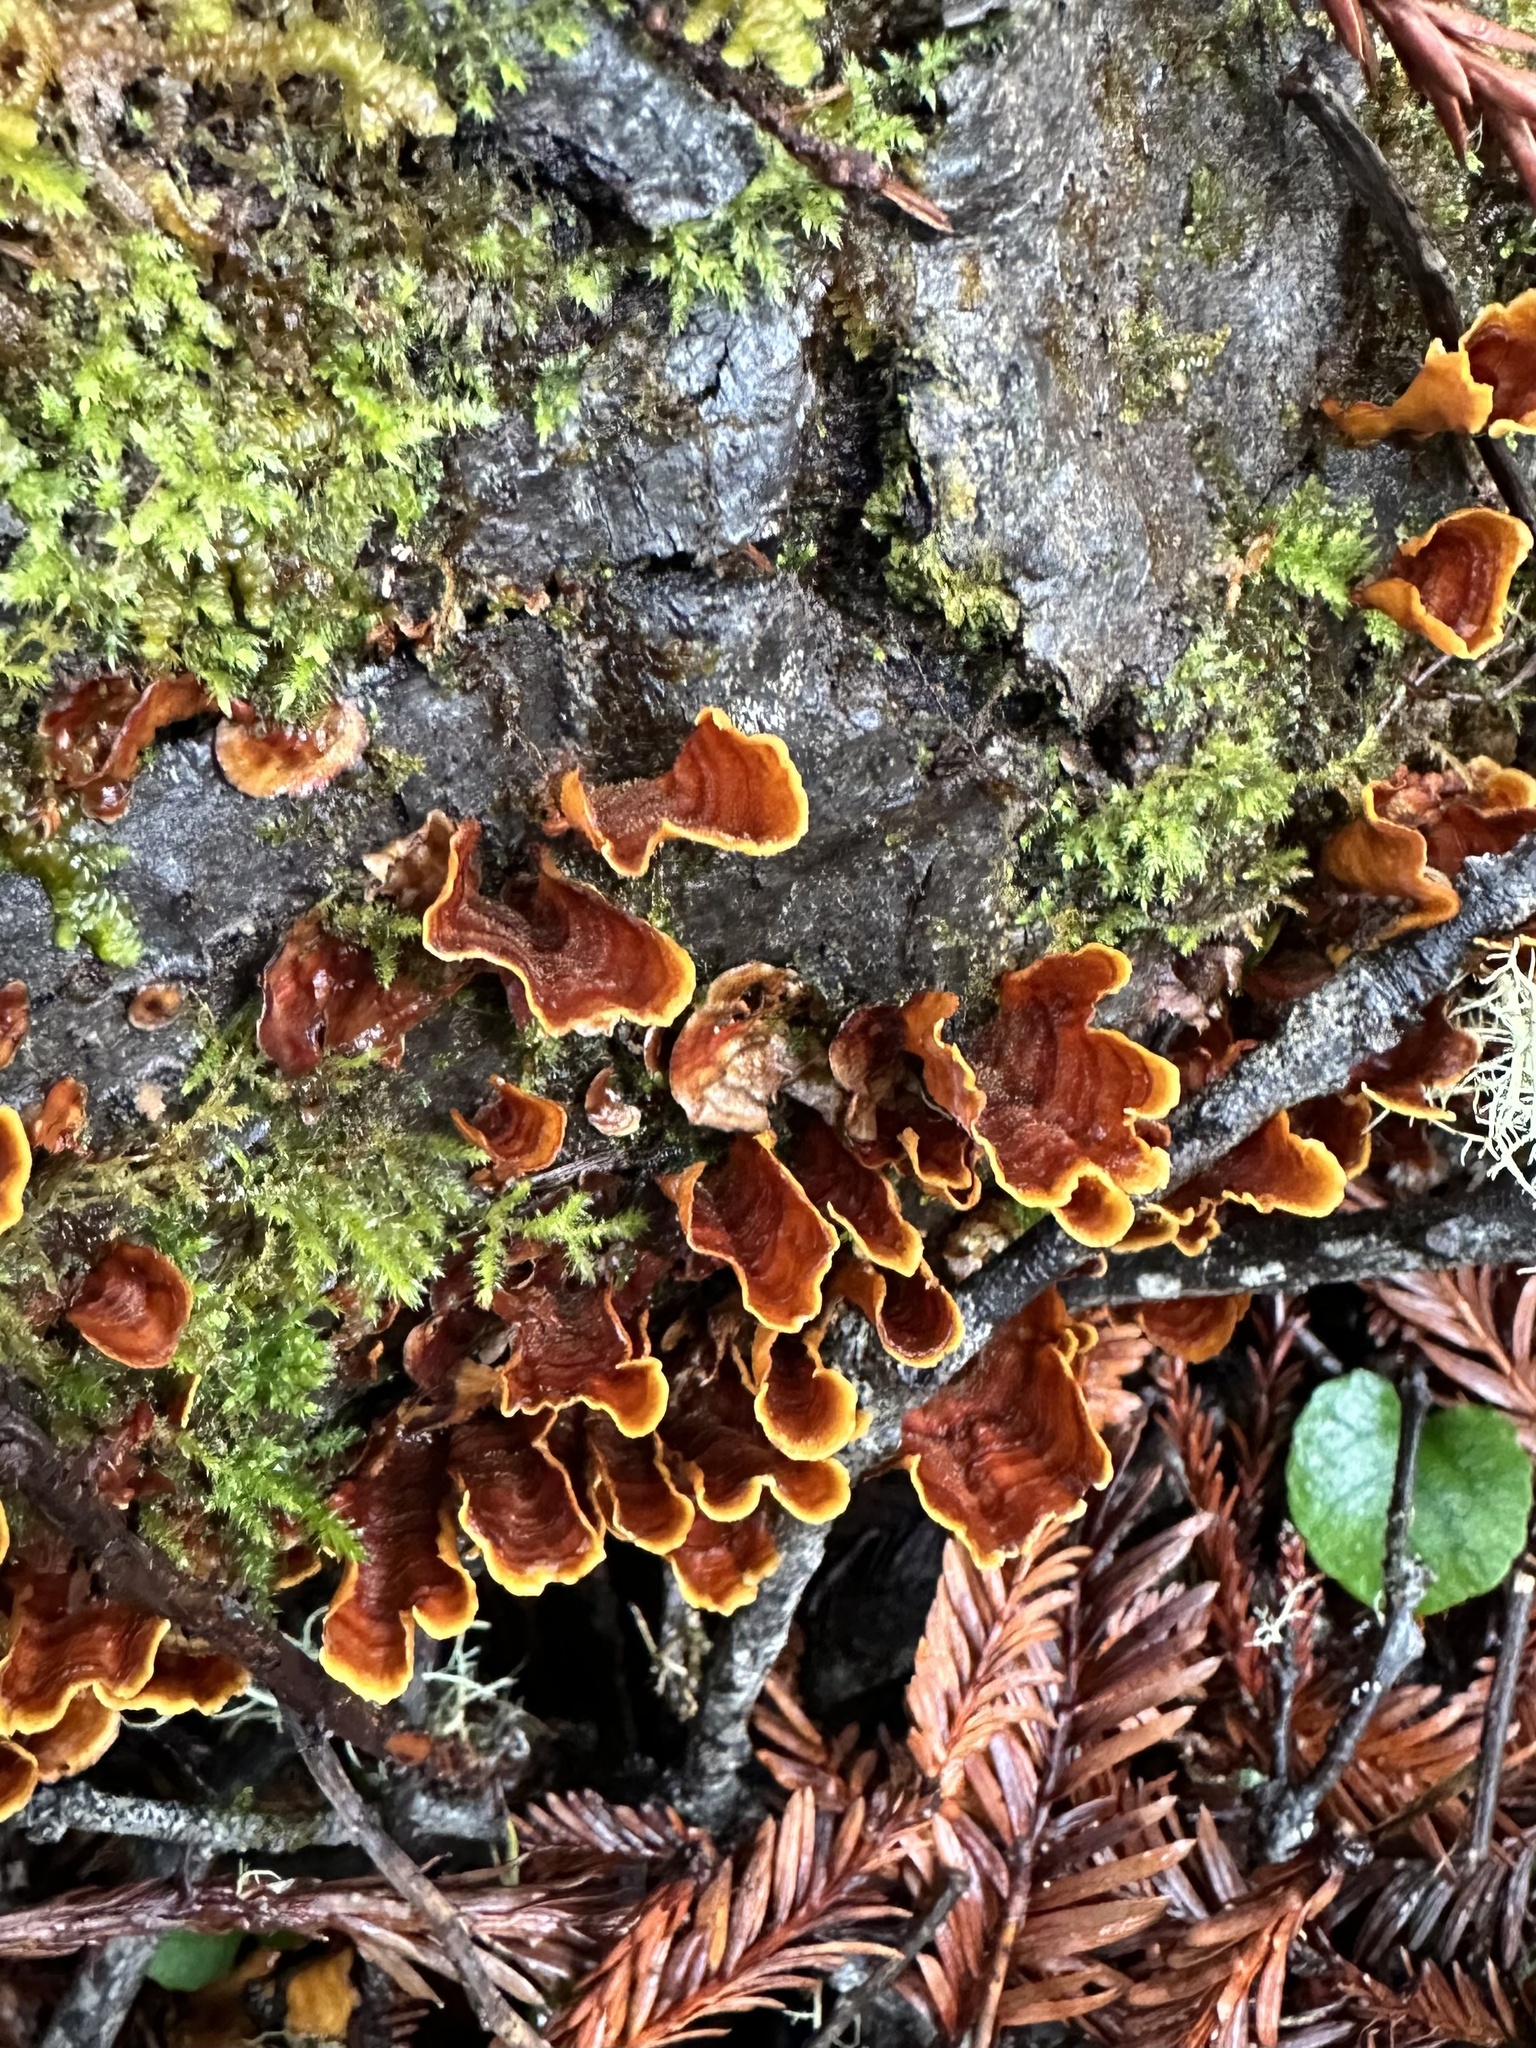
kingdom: Fungi
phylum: Basidiomycota
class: Agaricomycetes
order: Russulales
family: Stereaceae
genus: Stereum
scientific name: Stereum hirsutum
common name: Hairy curtain crust
